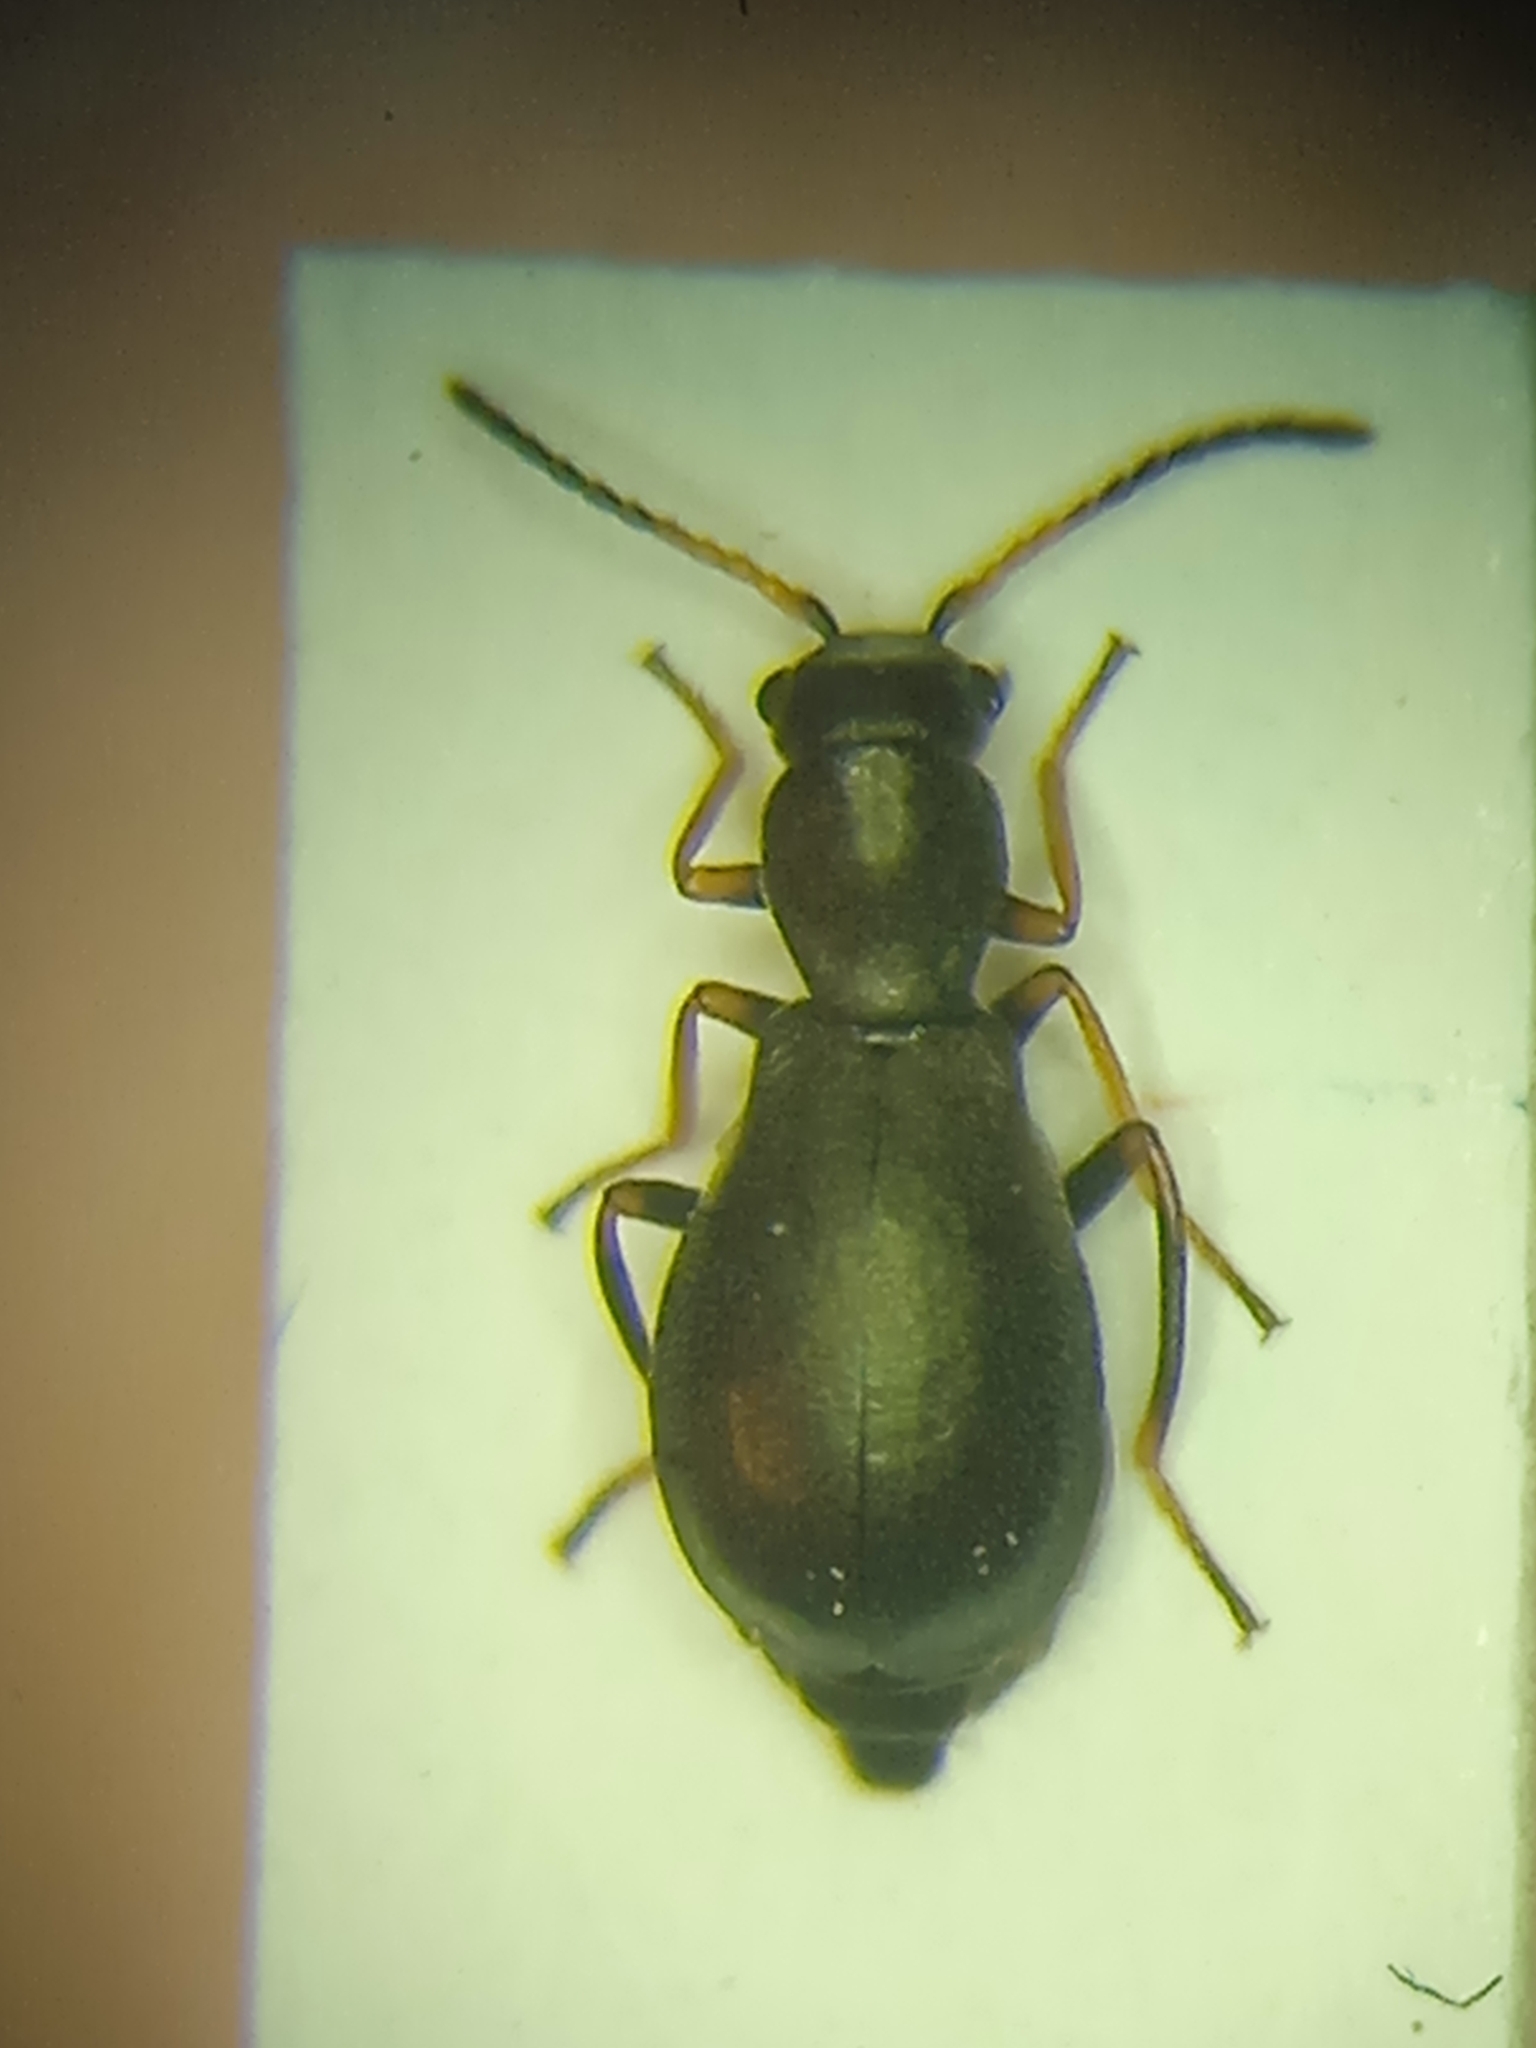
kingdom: Animalia
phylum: Arthropoda
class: Insecta
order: Coleoptera
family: Malachiidae
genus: Charopus
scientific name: Charopus flavipes
